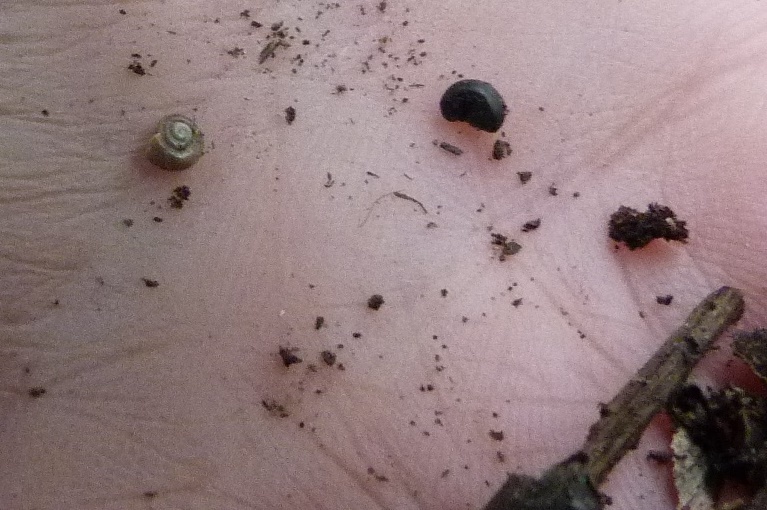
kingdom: Animalia
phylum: Mollusca
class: Gastropoda
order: Stylommatophora
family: Oxychilidae
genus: Oxychilus
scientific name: Oxychilus
